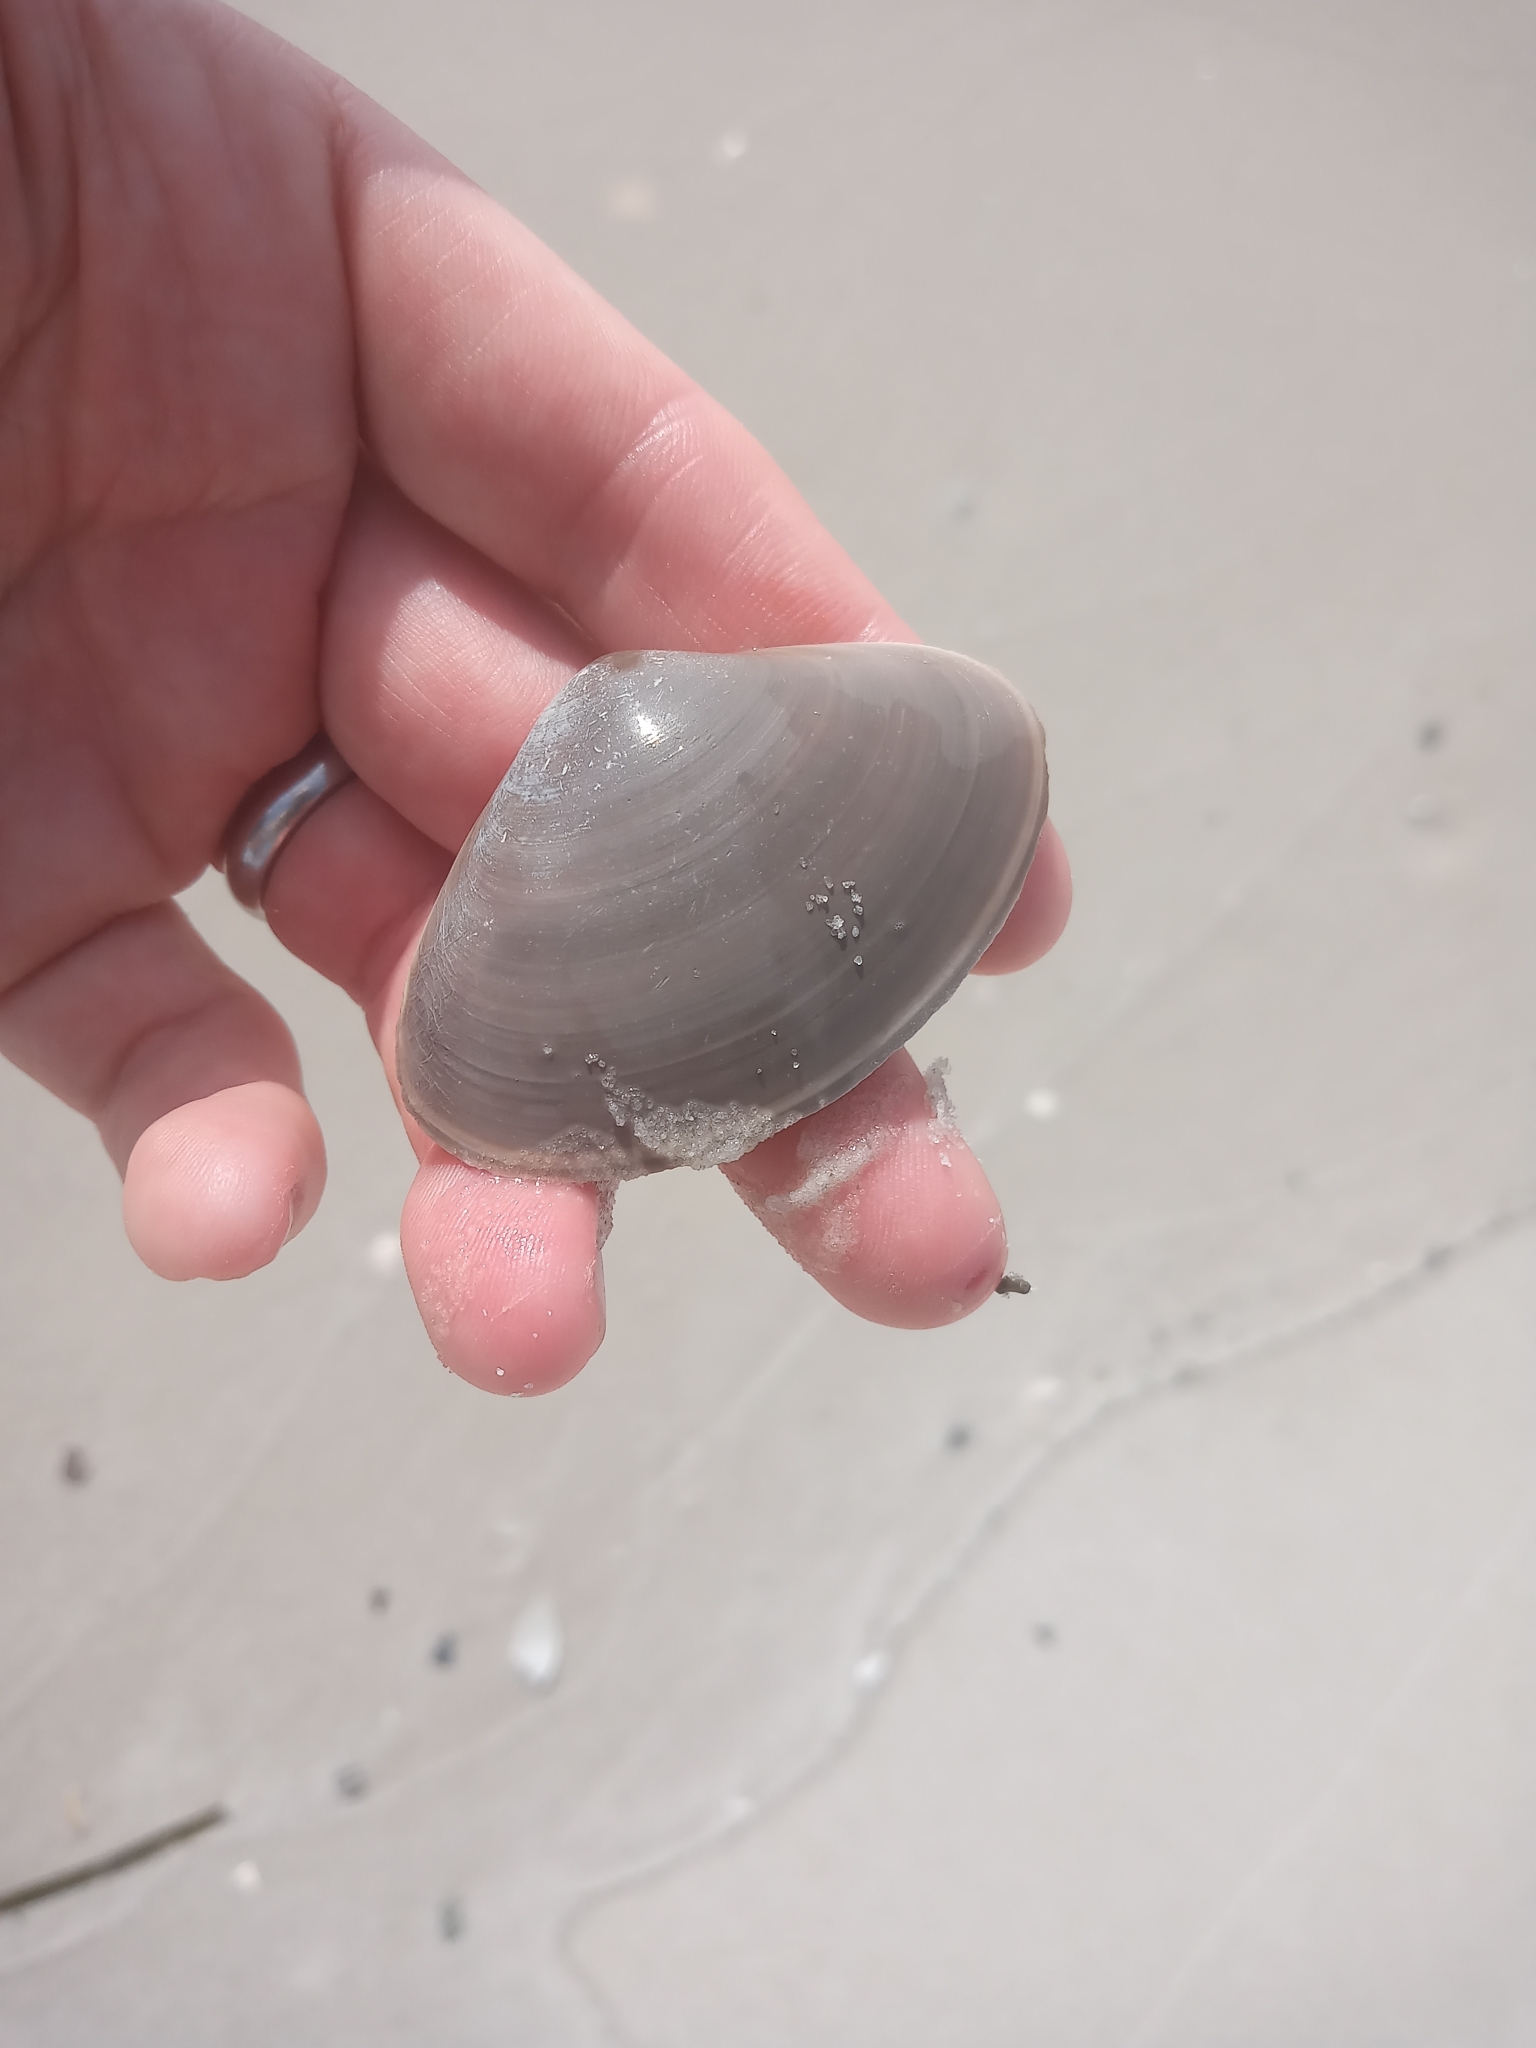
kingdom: Animalia
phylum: Mollusca
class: Bivalvia
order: Venerida
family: Mactridae
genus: Spisula
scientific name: Spisula raveneli
